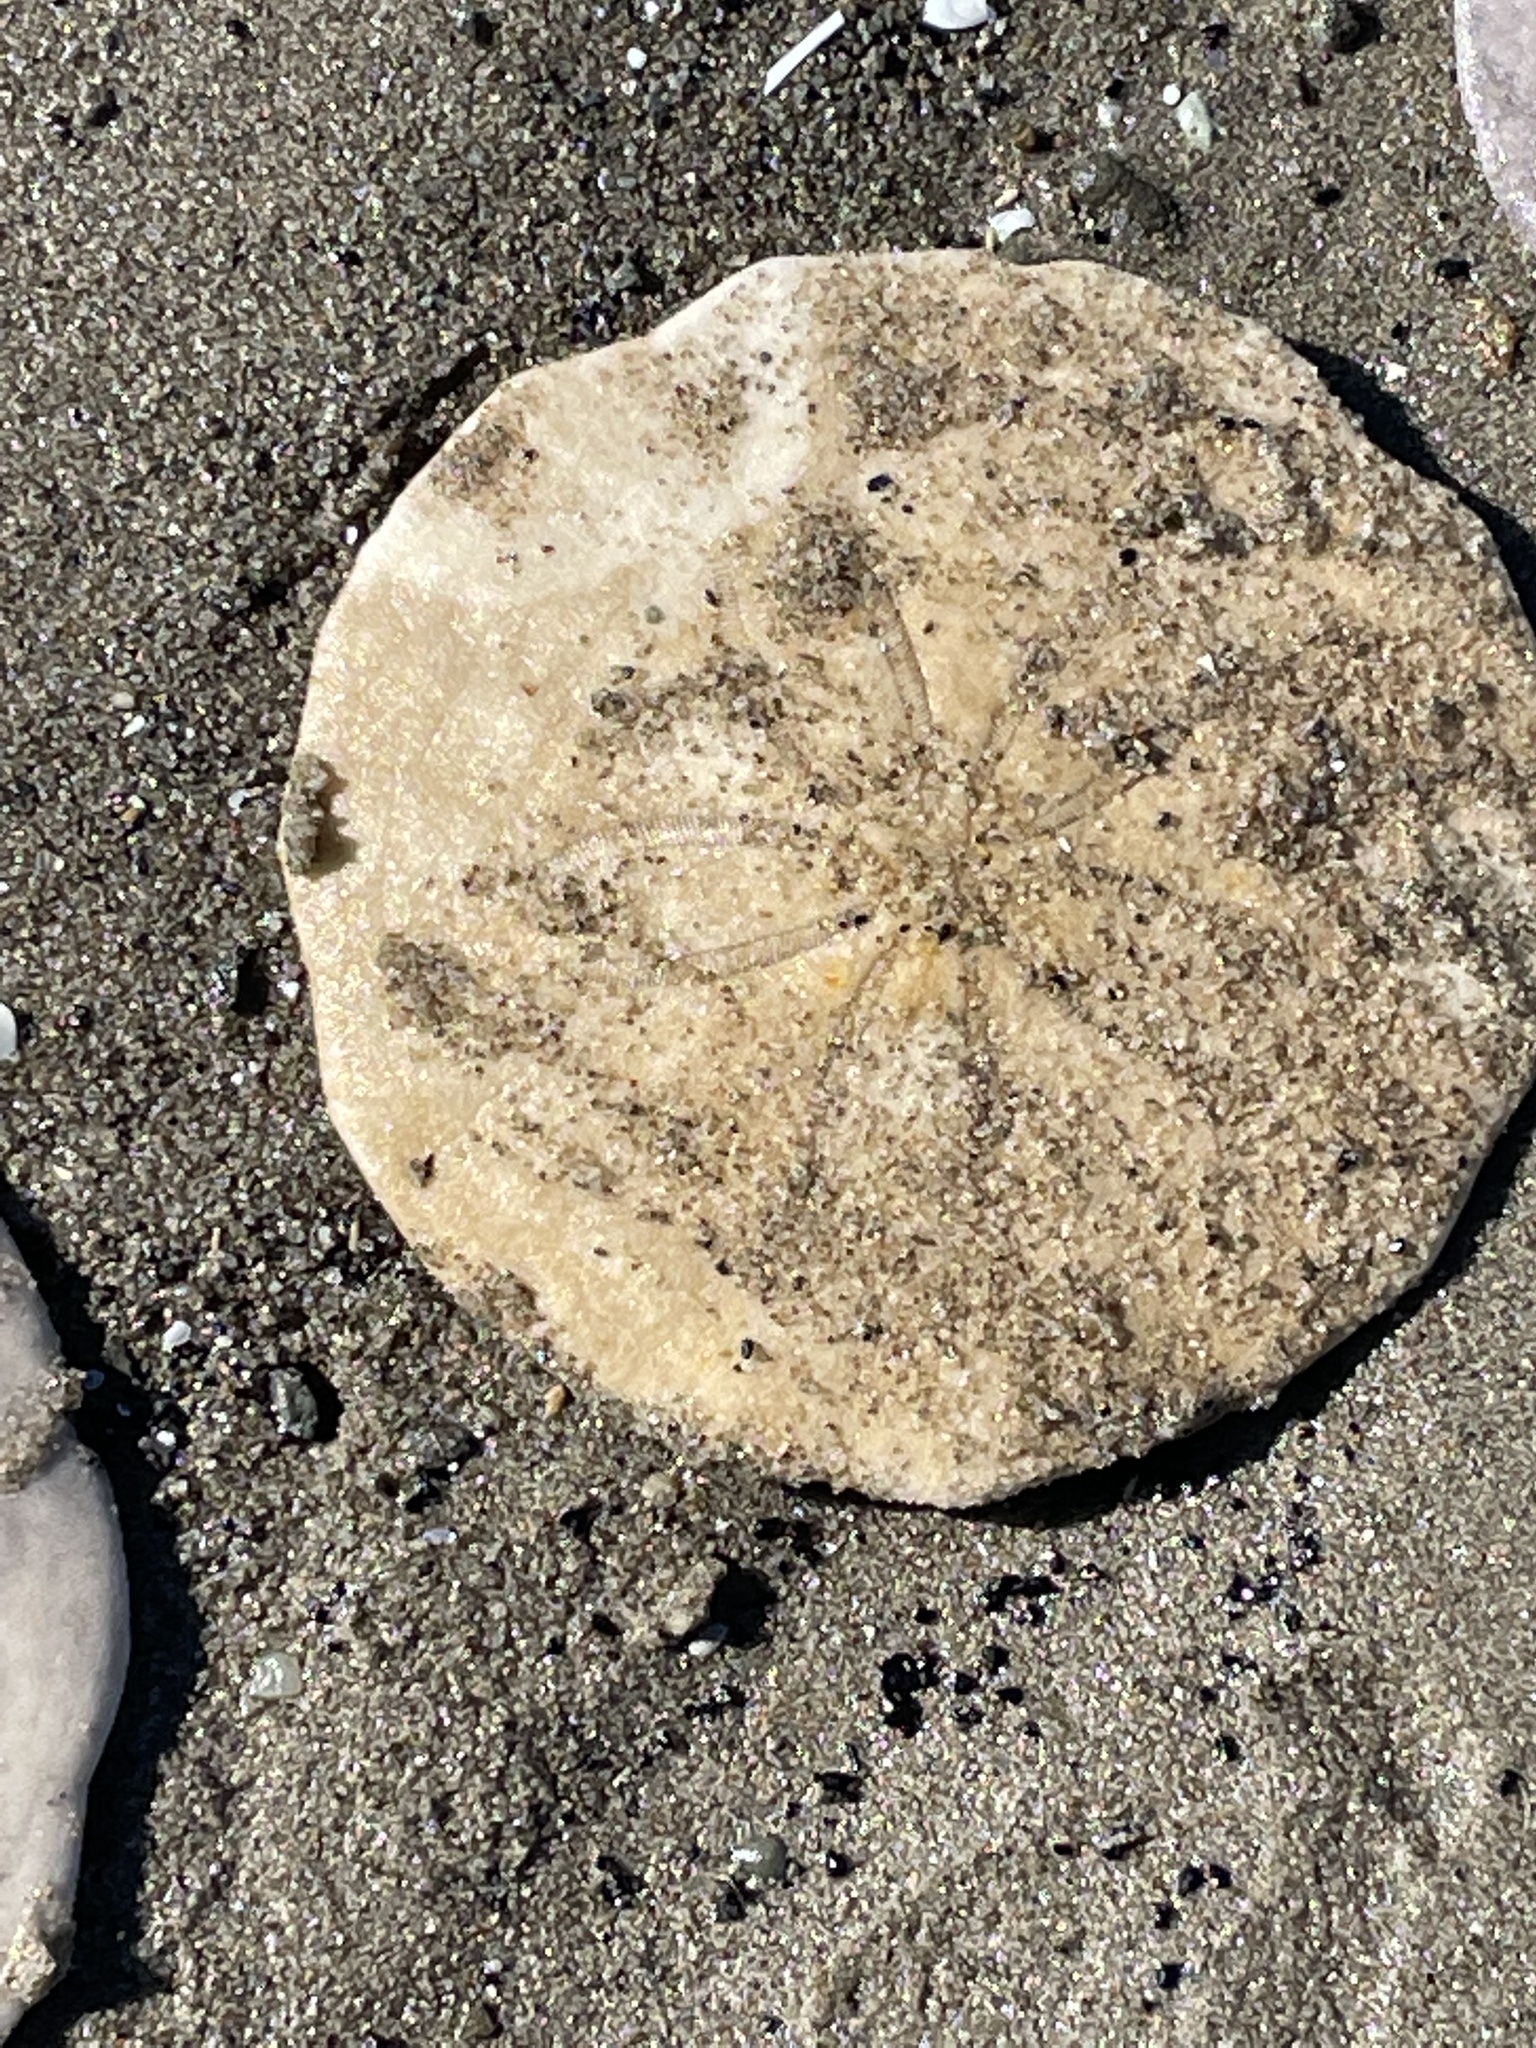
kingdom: Animalia
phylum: Echinodermata
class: Echinoidea
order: Echinolampadacea
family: Echinarachniidae
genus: Echinarachnius
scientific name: Echinarachnius parma
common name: Common sand dollar
